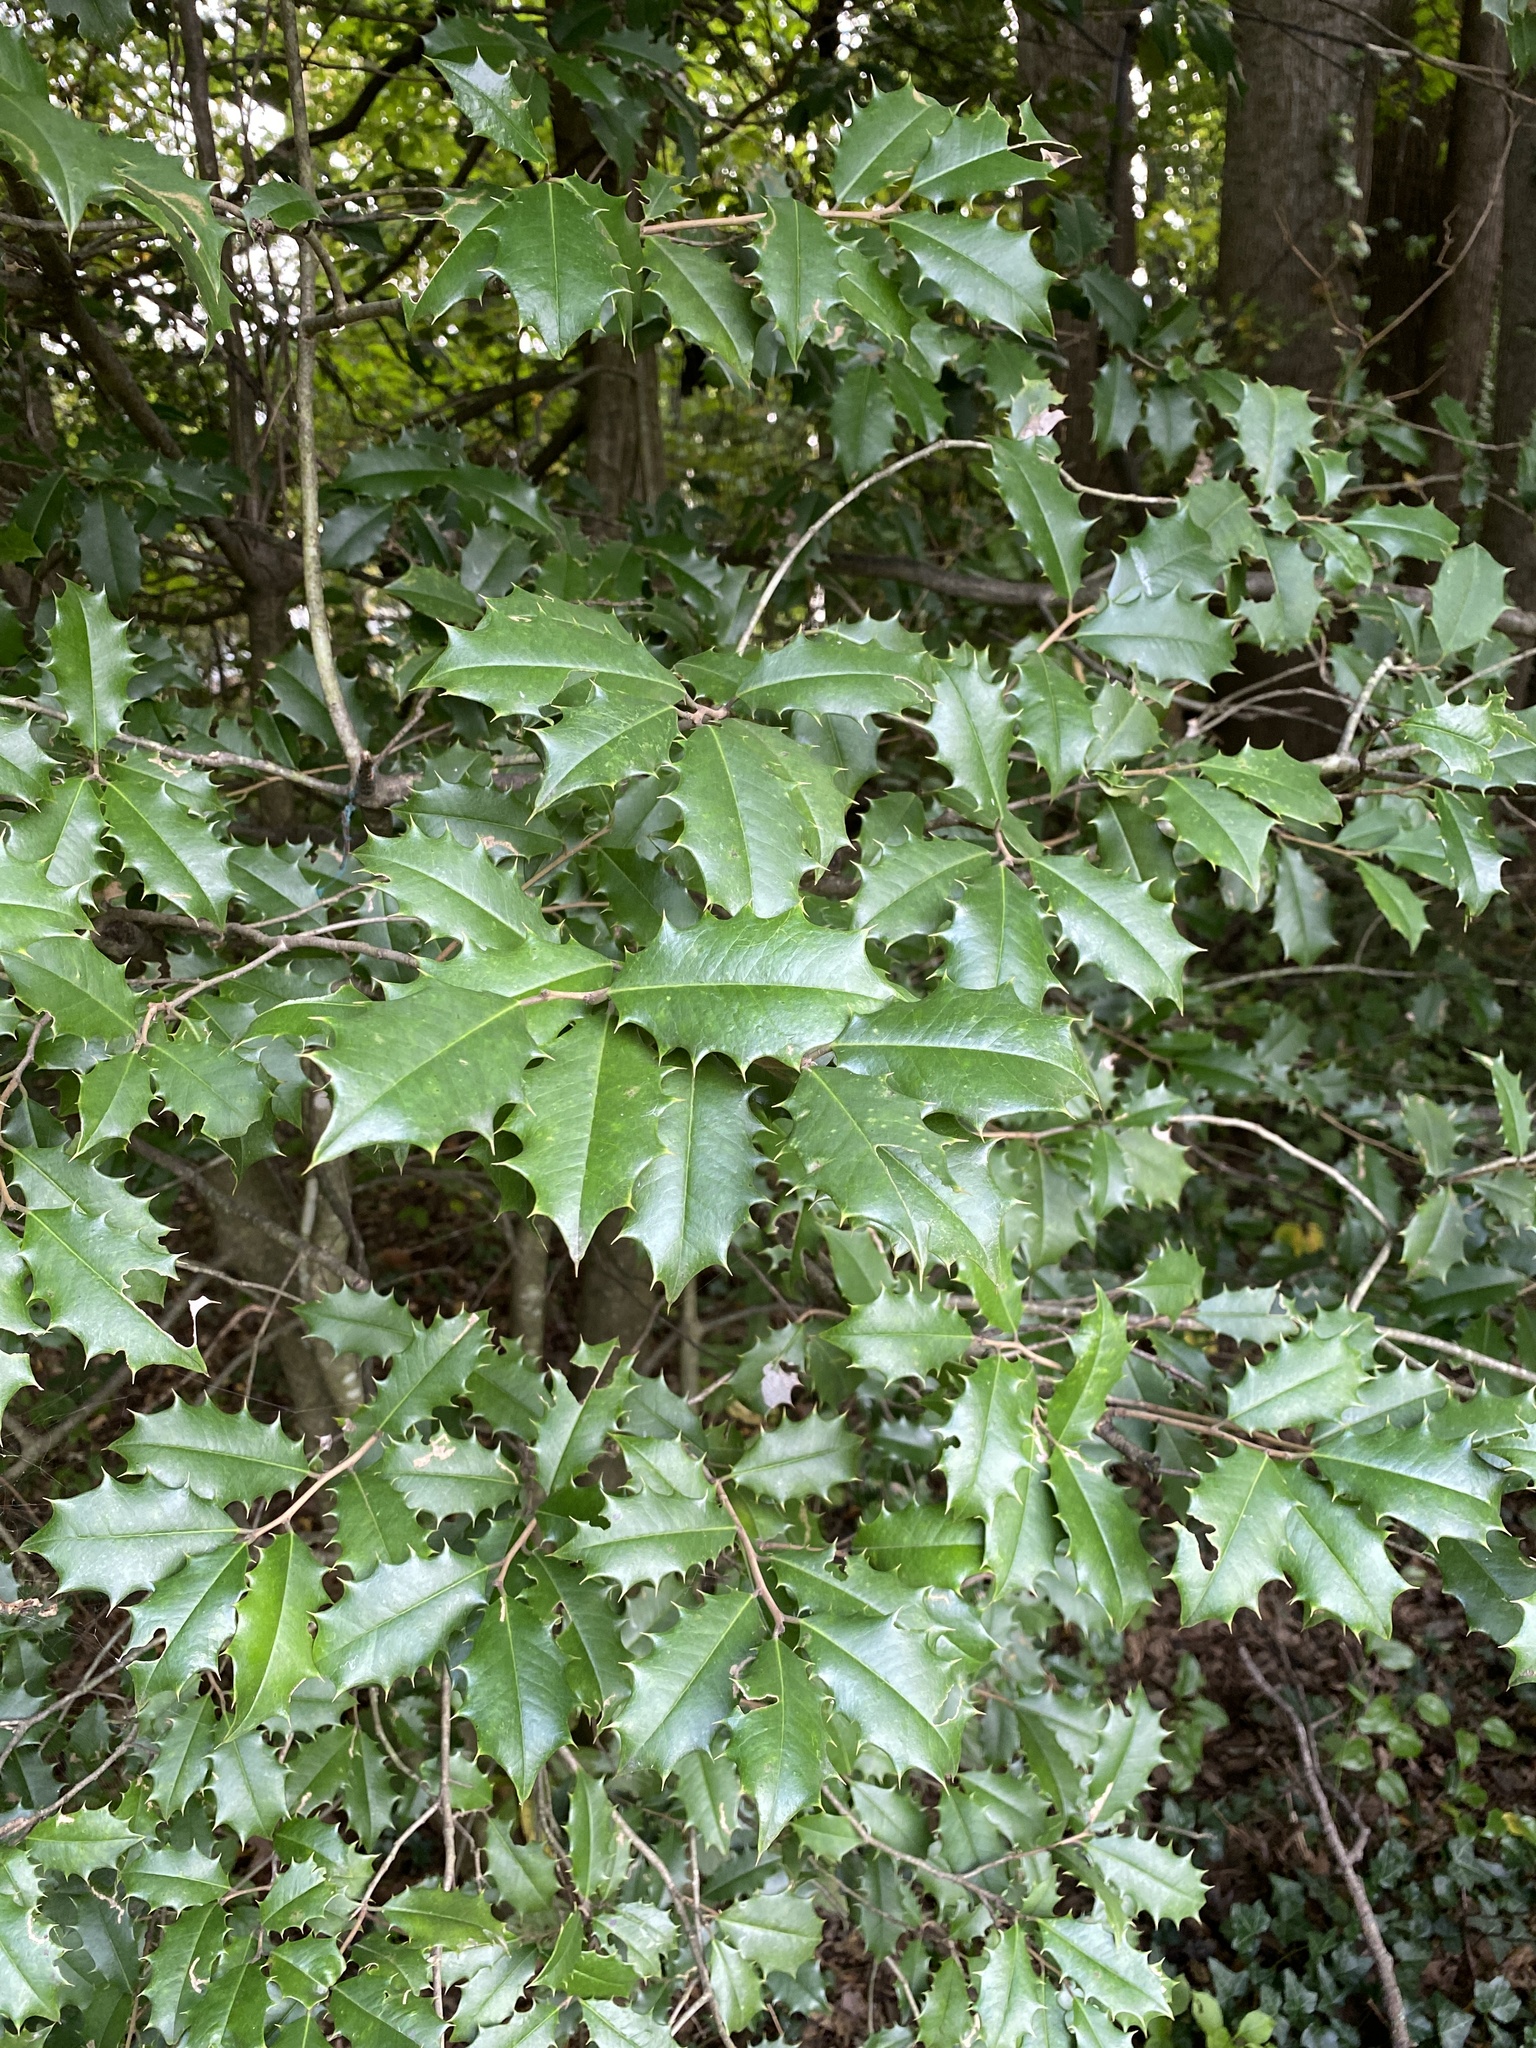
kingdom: Plantae
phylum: Tracheophyta
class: Magnoliopsida
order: Aquifoliales
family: Aquifoliaceae
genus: Ilex
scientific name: Ilex opaca
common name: American holly
